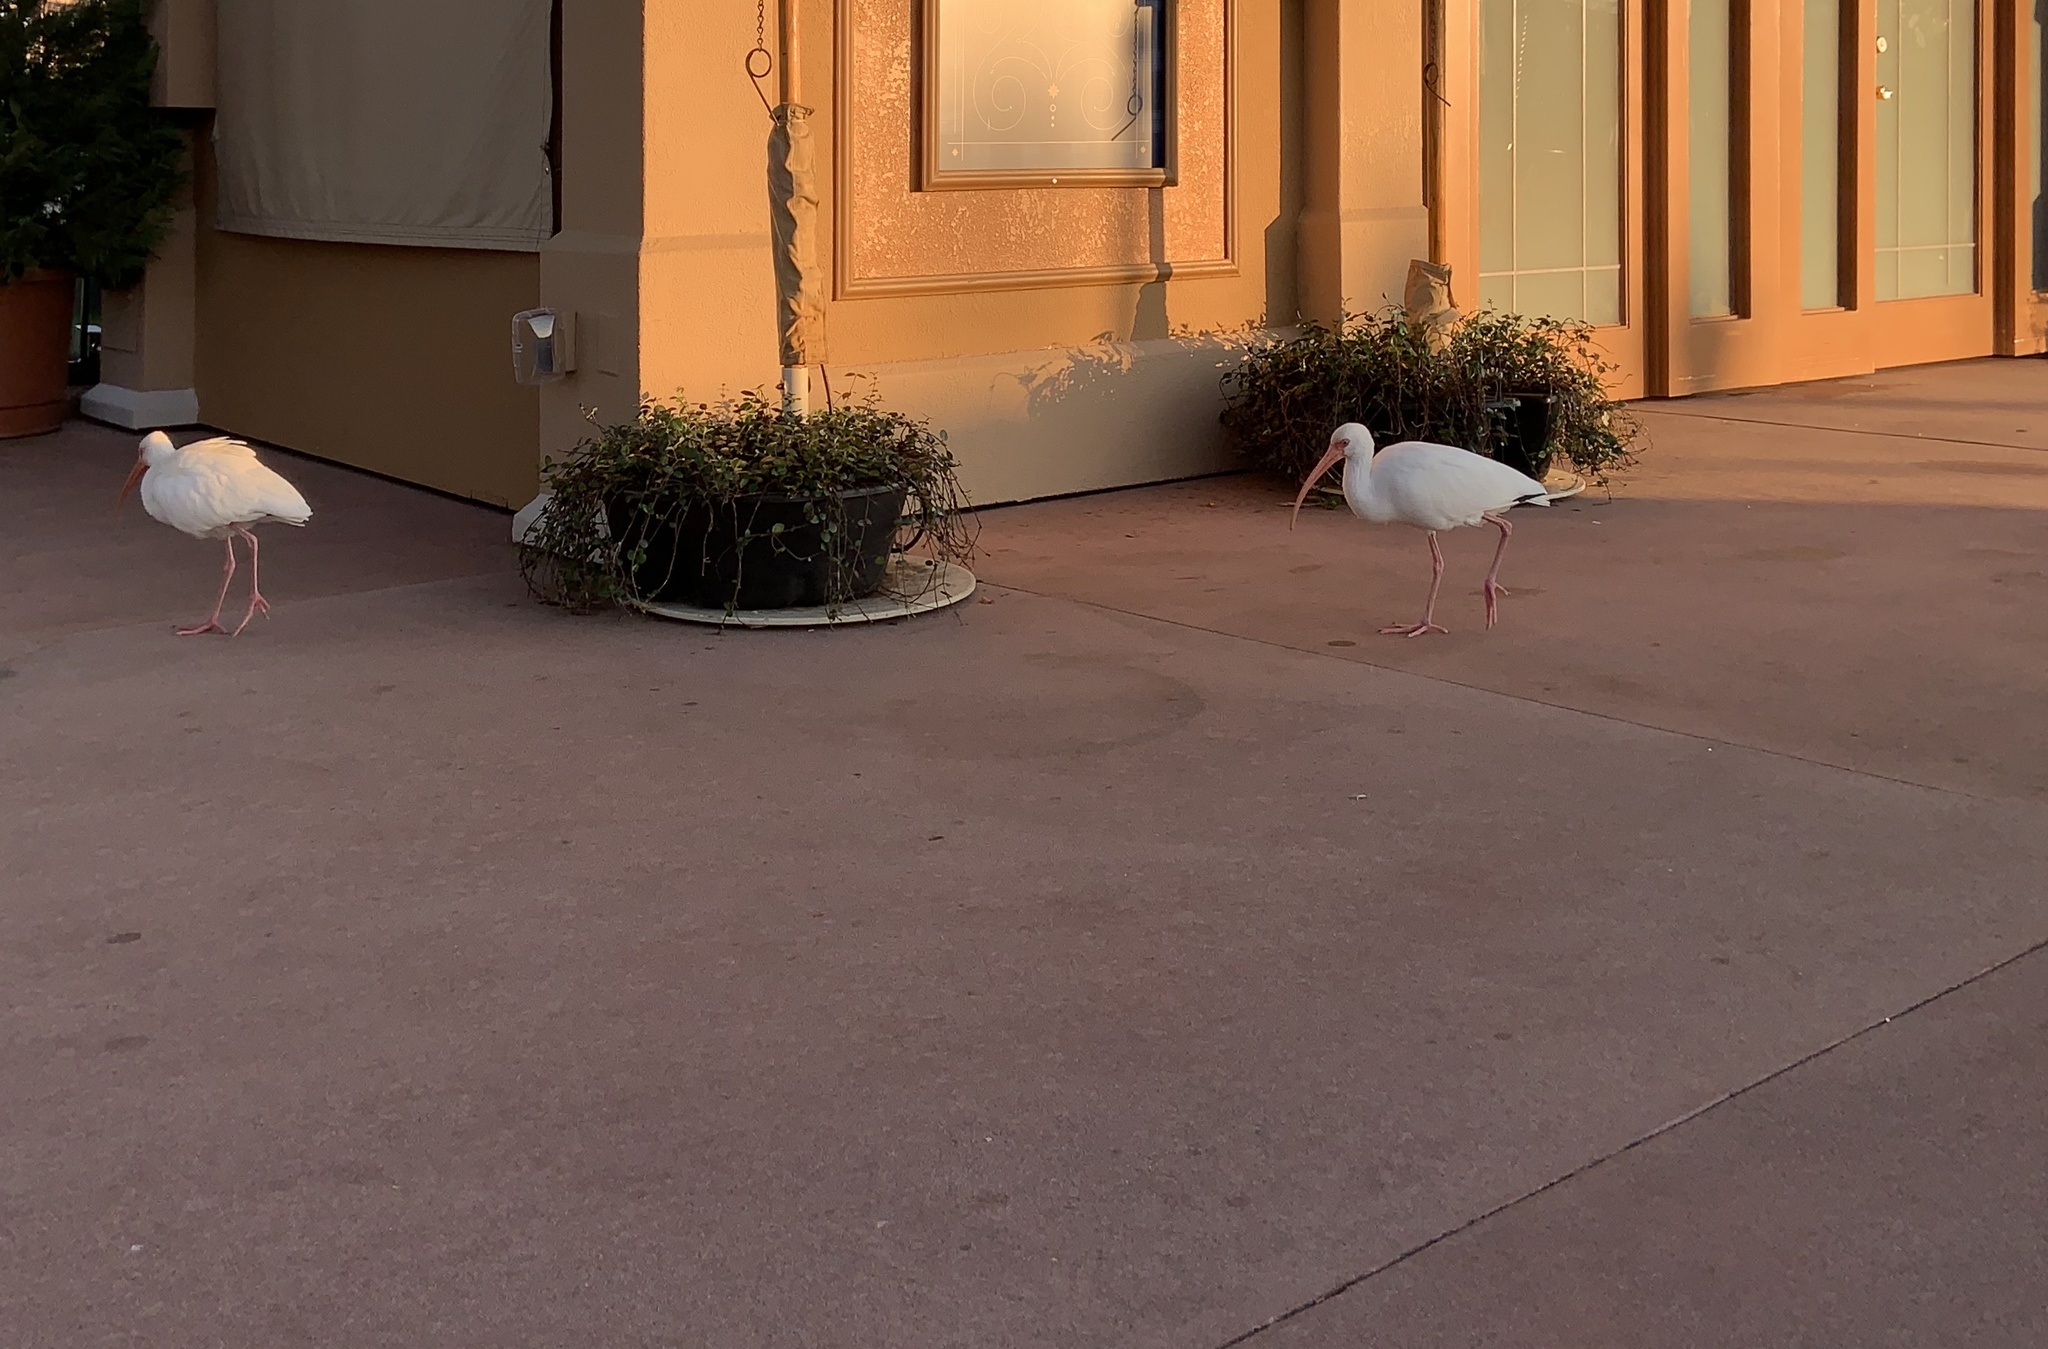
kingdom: Animalia
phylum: Chordata
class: Aves
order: Pelecaniformes
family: Threskiornithidae
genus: Eudocimus
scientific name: Eudocimus albus
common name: White ibis
